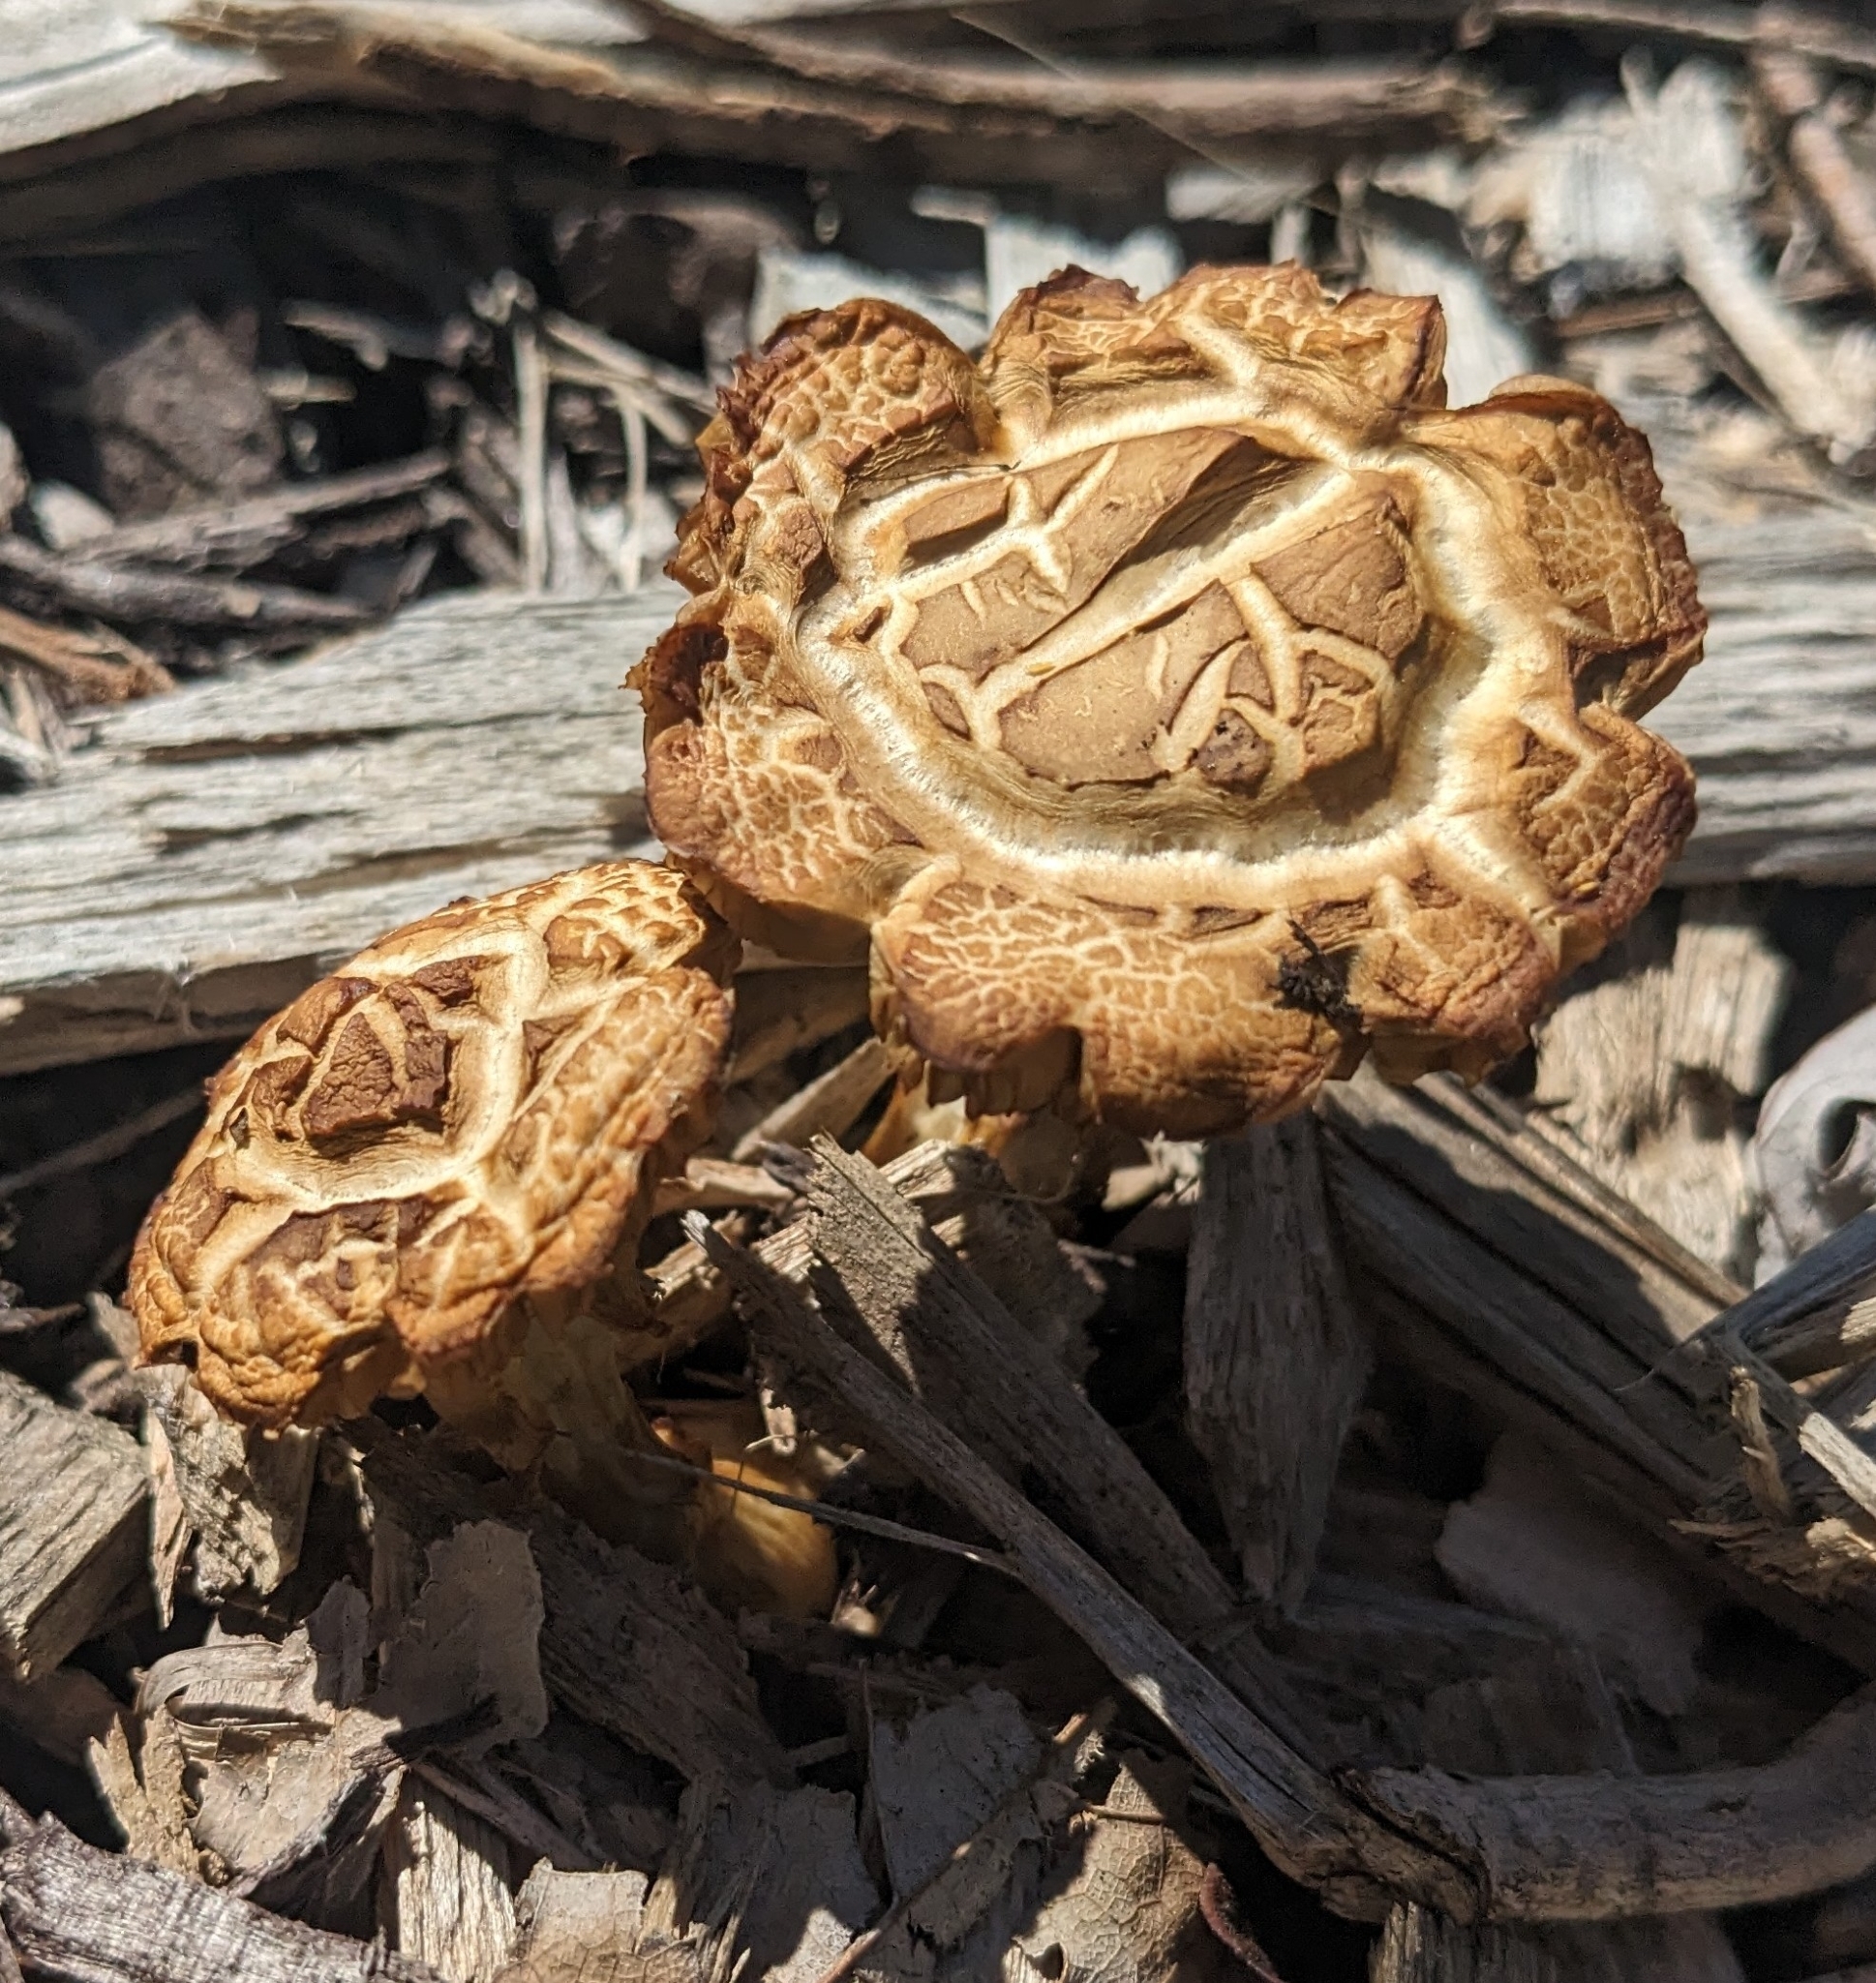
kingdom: Fungi
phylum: Basidiomycota
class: Agaricomycetes
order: Agaricales
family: Hymenogastraceae
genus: Gymnopilus
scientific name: Gymnopilus luteofolius
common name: Yellow-gilled gymnopilus
